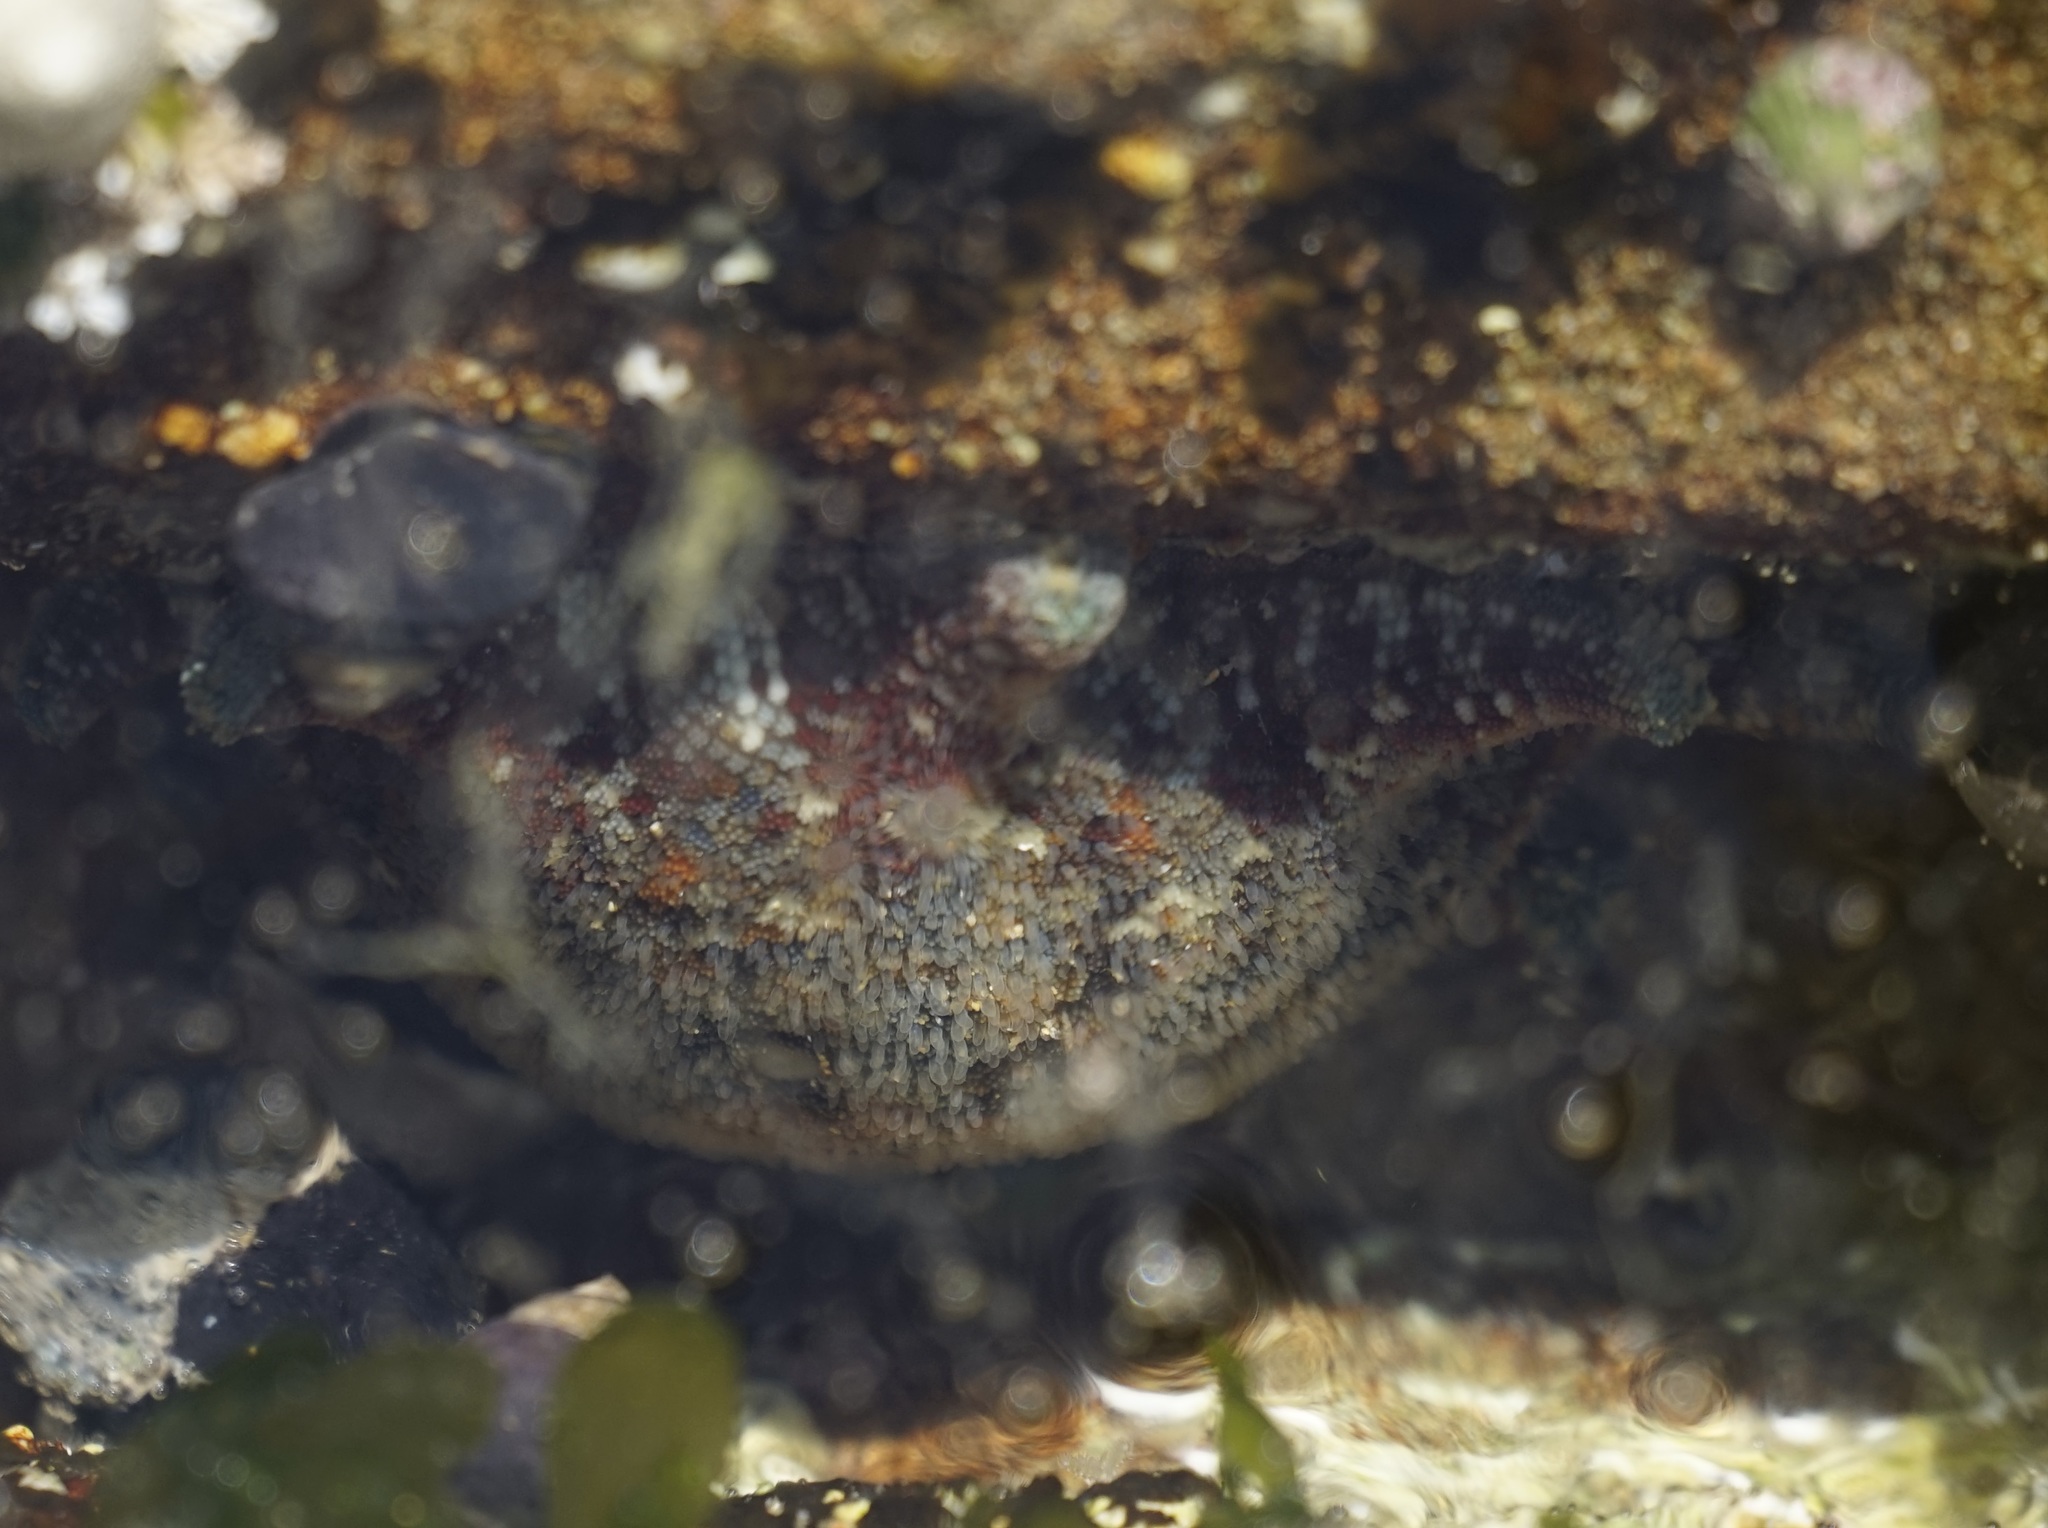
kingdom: Animalia
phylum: Echinodermata
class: Asteroidea
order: Valvatida
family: Asterinidae
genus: Meridiastra
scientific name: Meridiastra calcar
